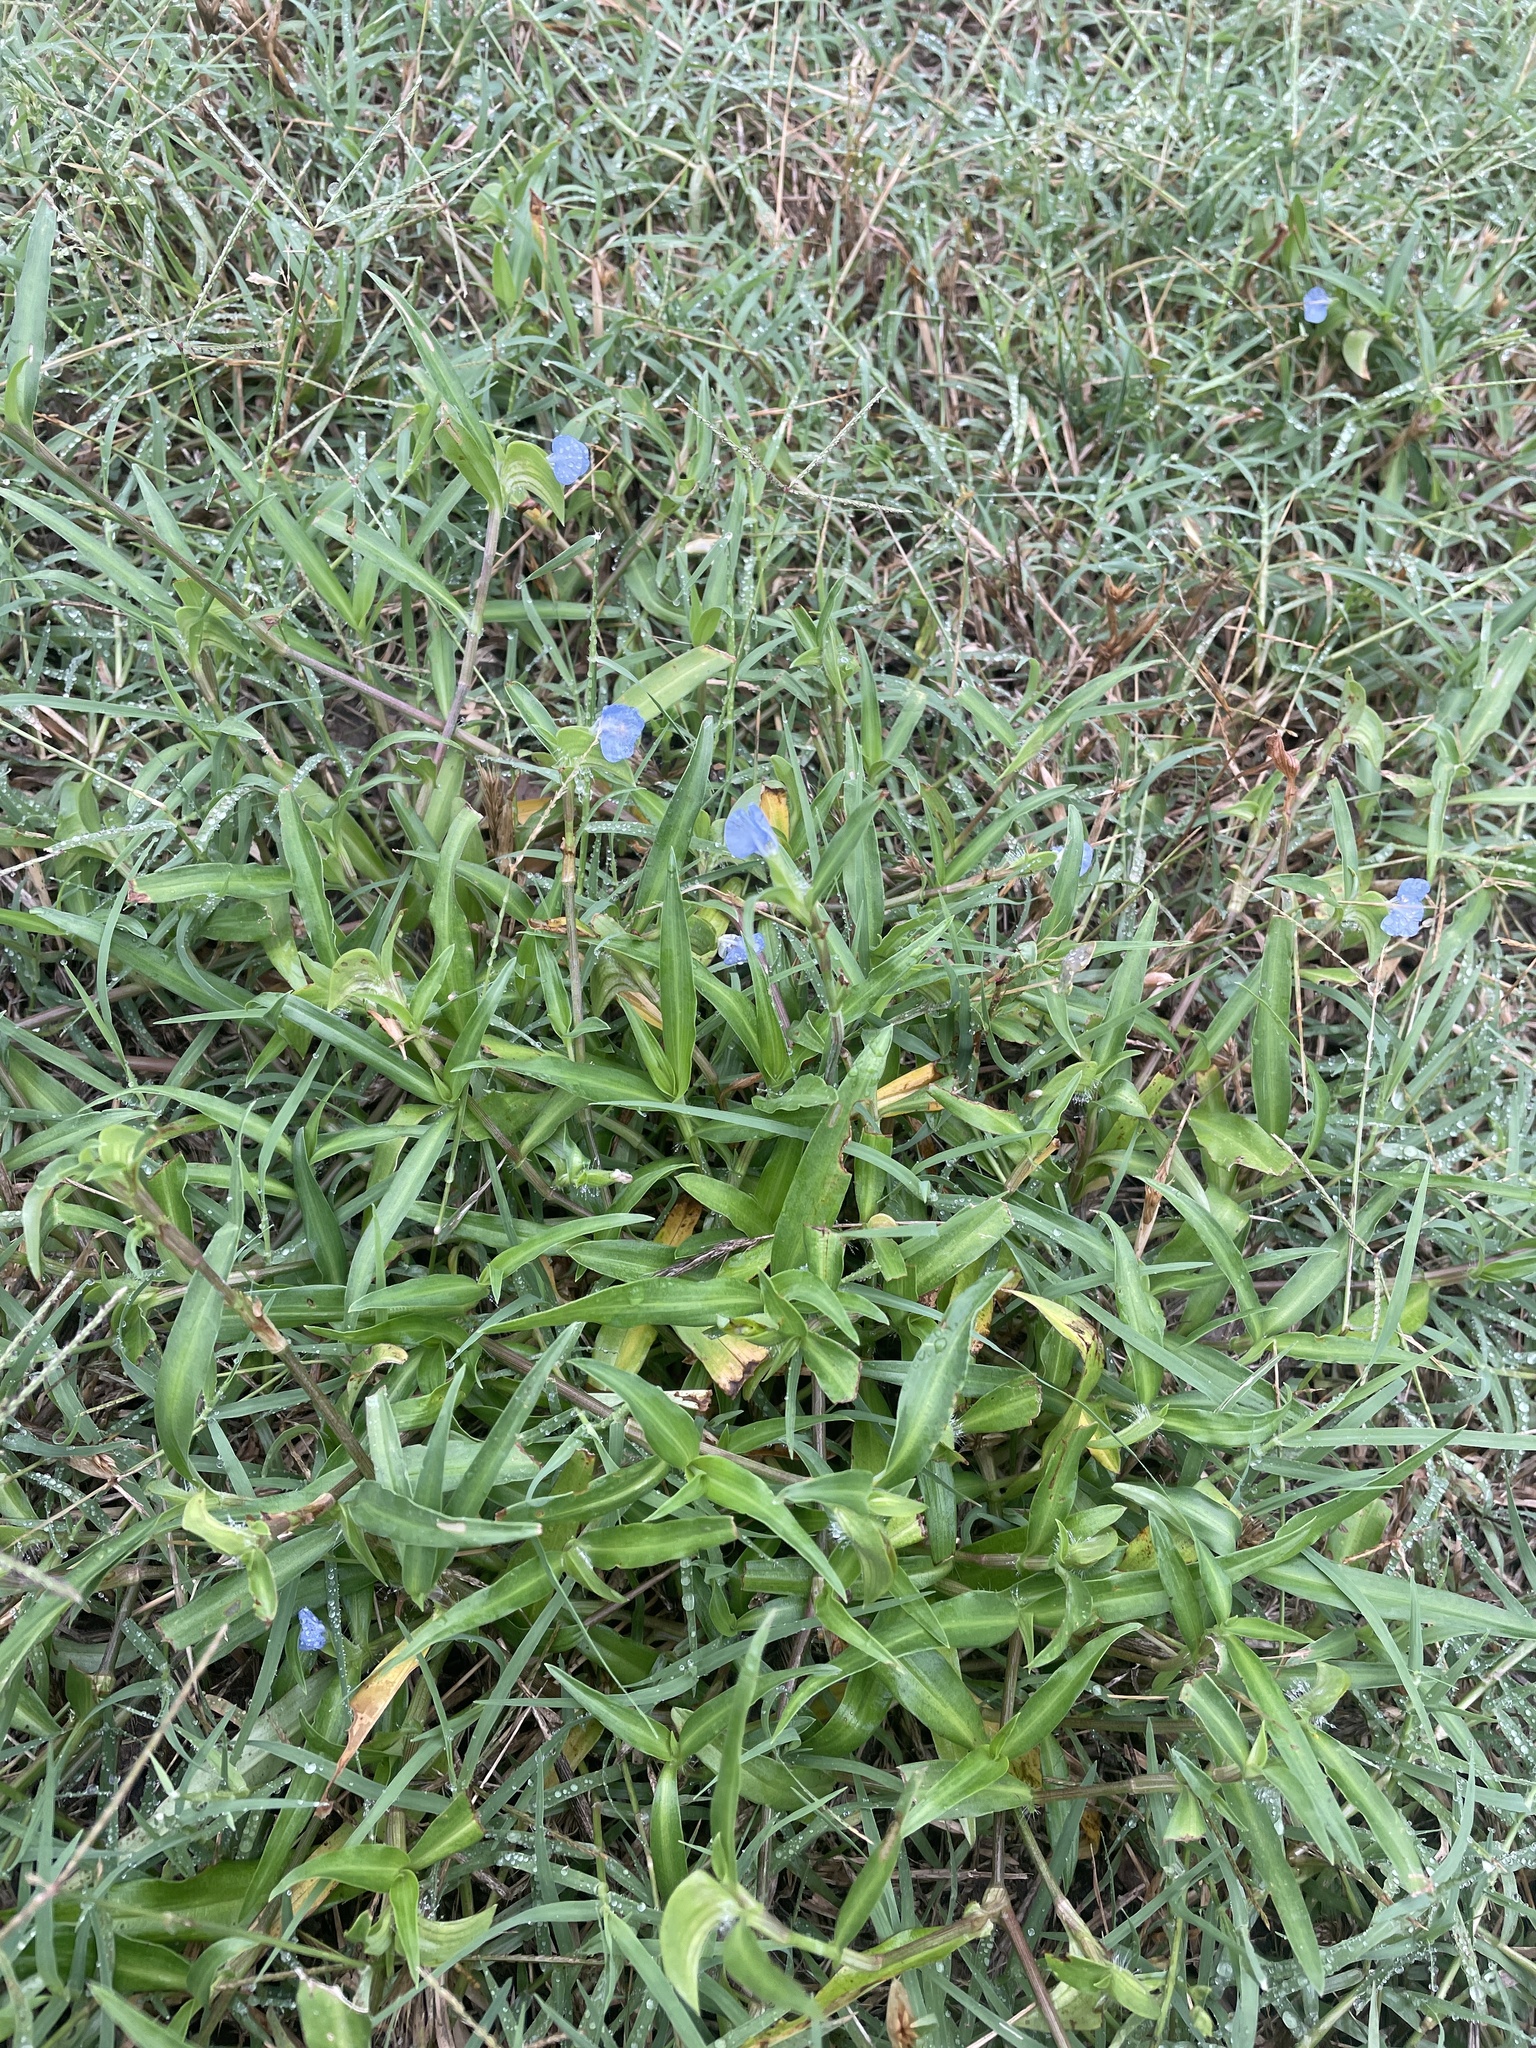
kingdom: Plantae
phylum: Tracheophyta
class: Liliopsida
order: Commelinales
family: Commelinaceae
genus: Commelina
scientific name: Commelina erecta
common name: Blousel blommetjie
